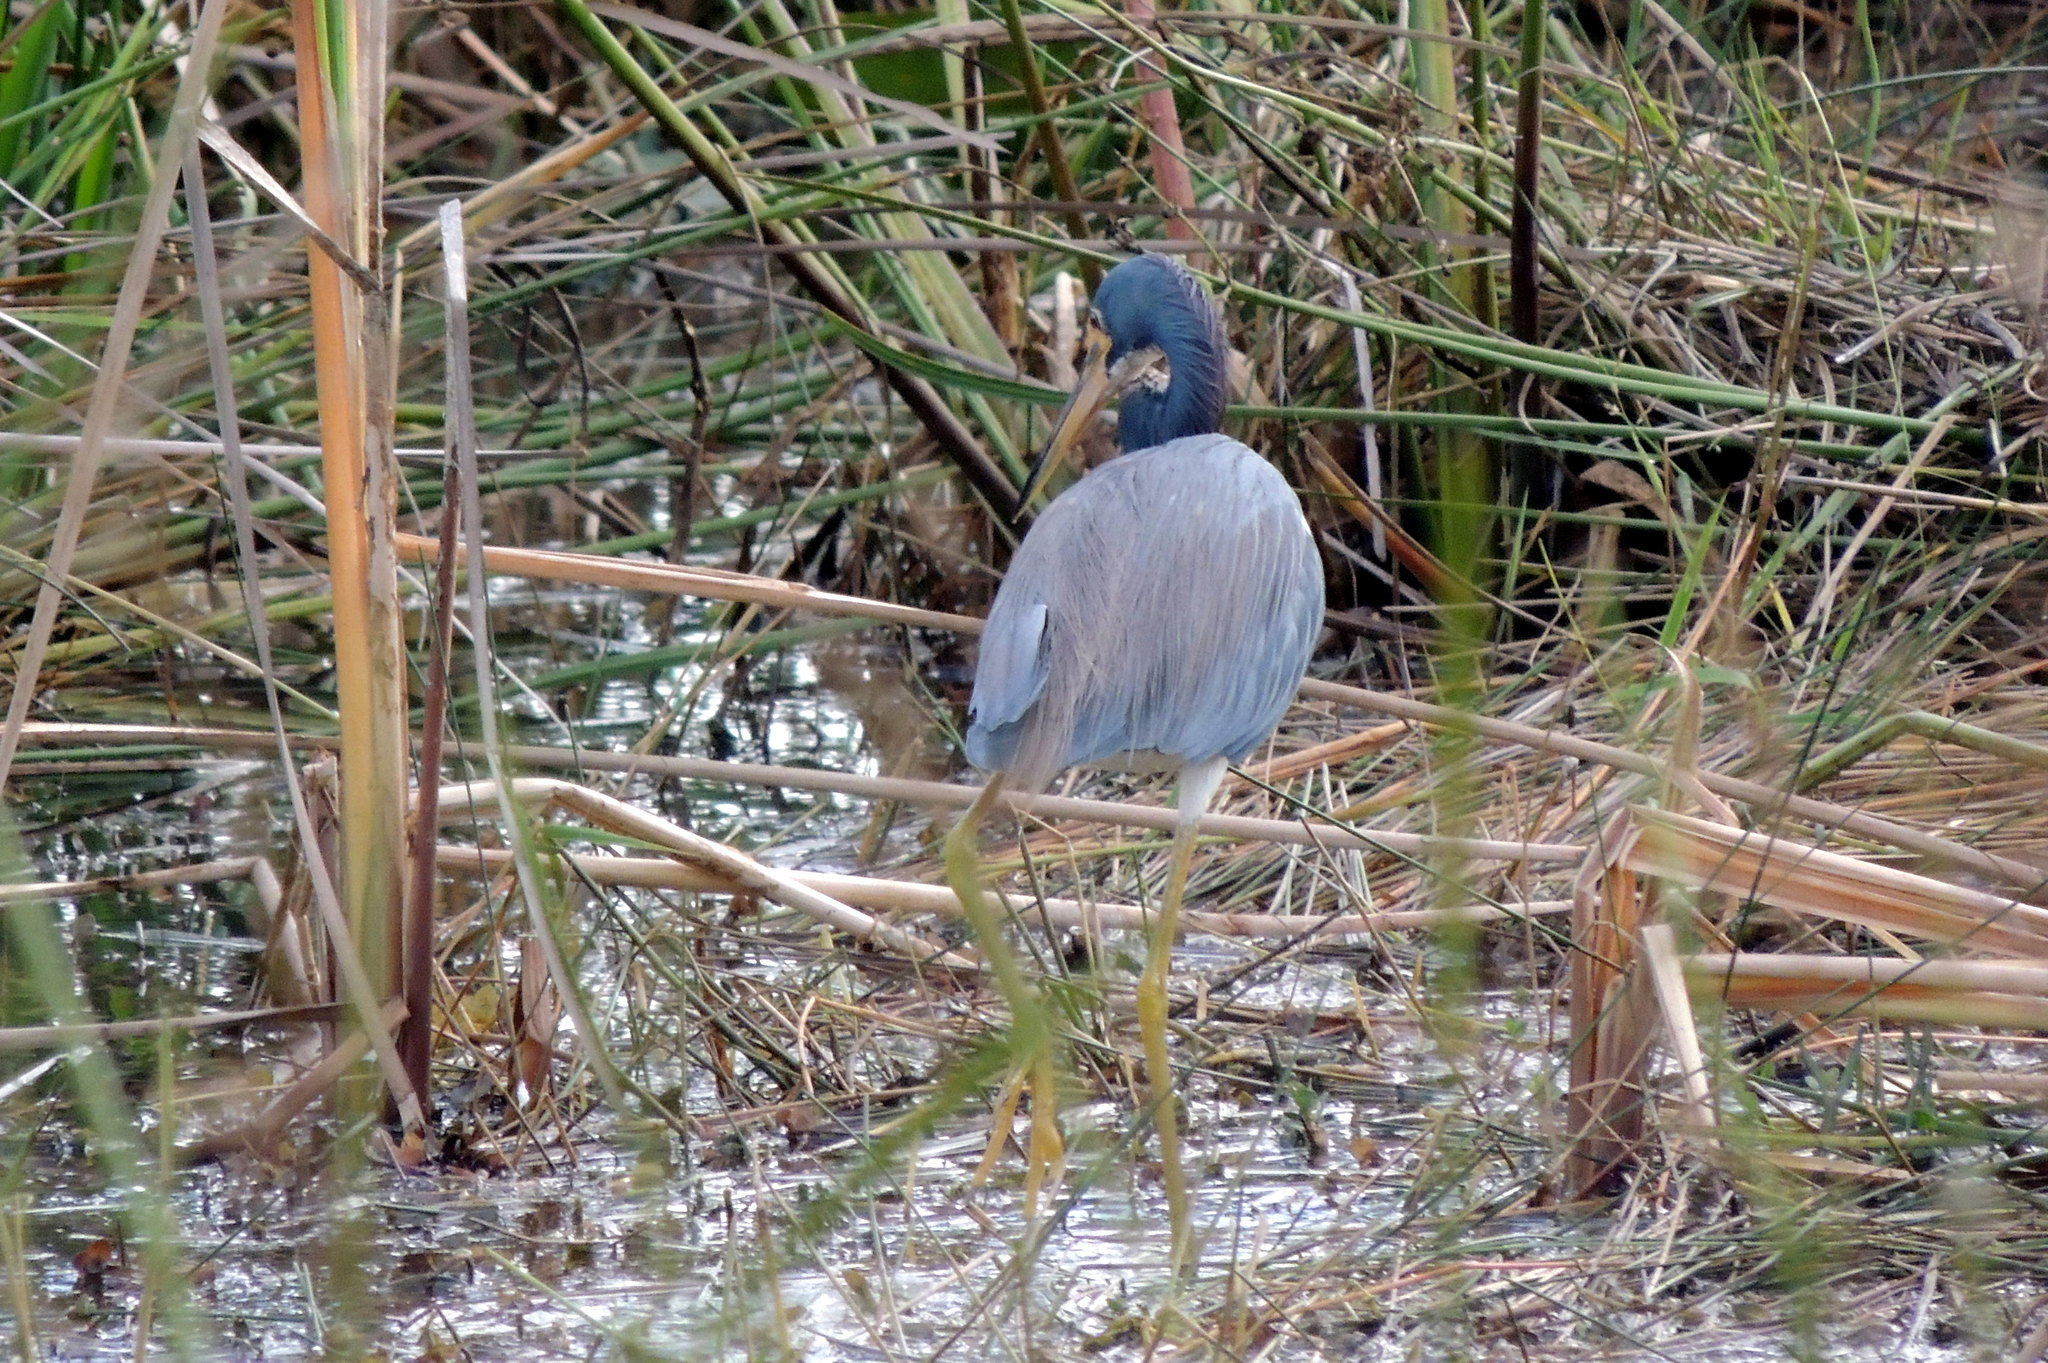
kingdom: Animalia
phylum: Chordata
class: Aves
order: Pelecaniformes
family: Ardeidae
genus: Egretta
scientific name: Egretta tricolor
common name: Tricolored heron
